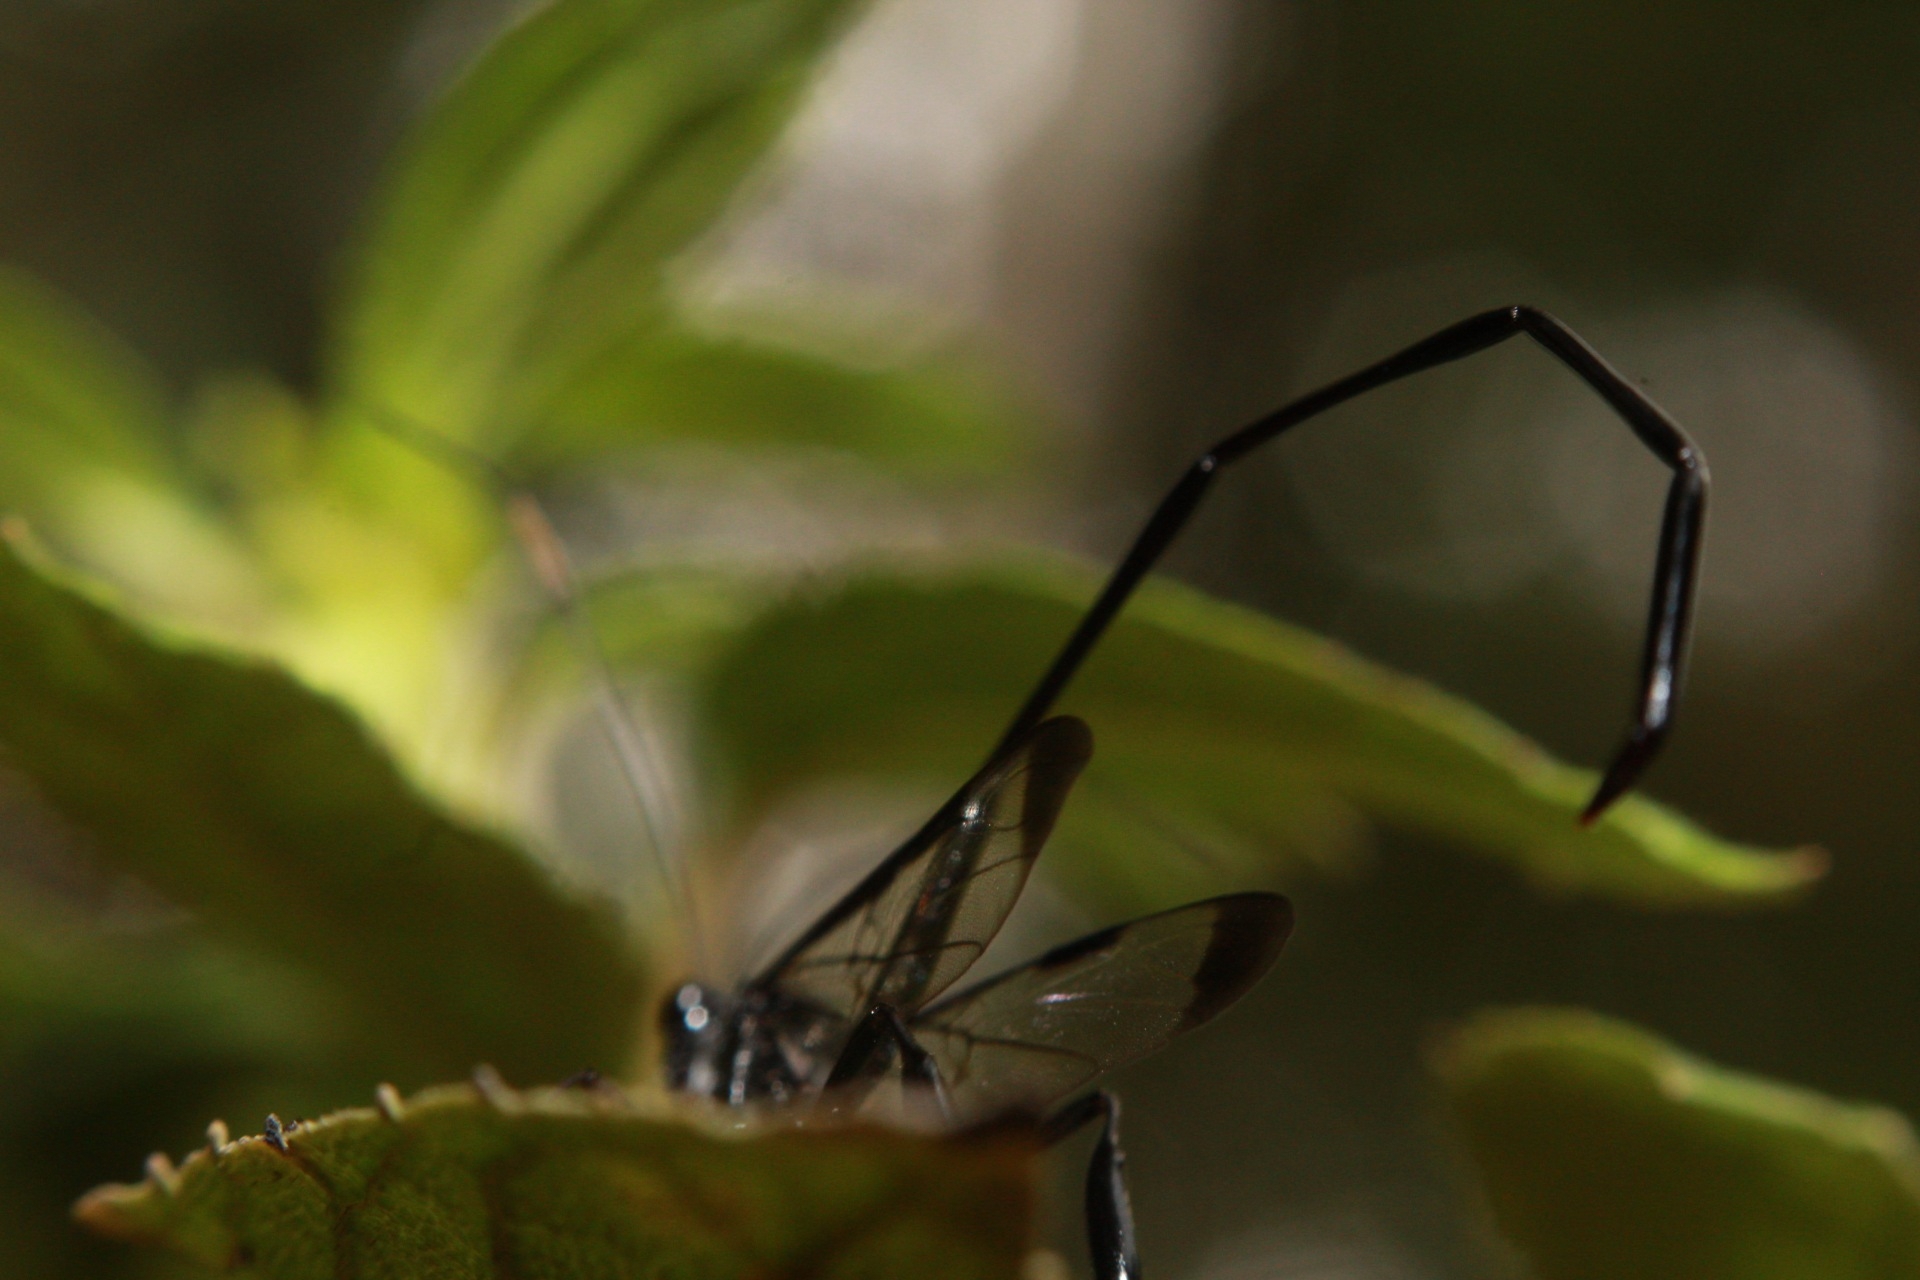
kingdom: Animalia
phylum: Arthropoda
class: Insecta
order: Hymenoptera
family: Pelecinidae
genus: Pelecinus
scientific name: Pelecinus polyturator
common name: American pelecinid wasp
